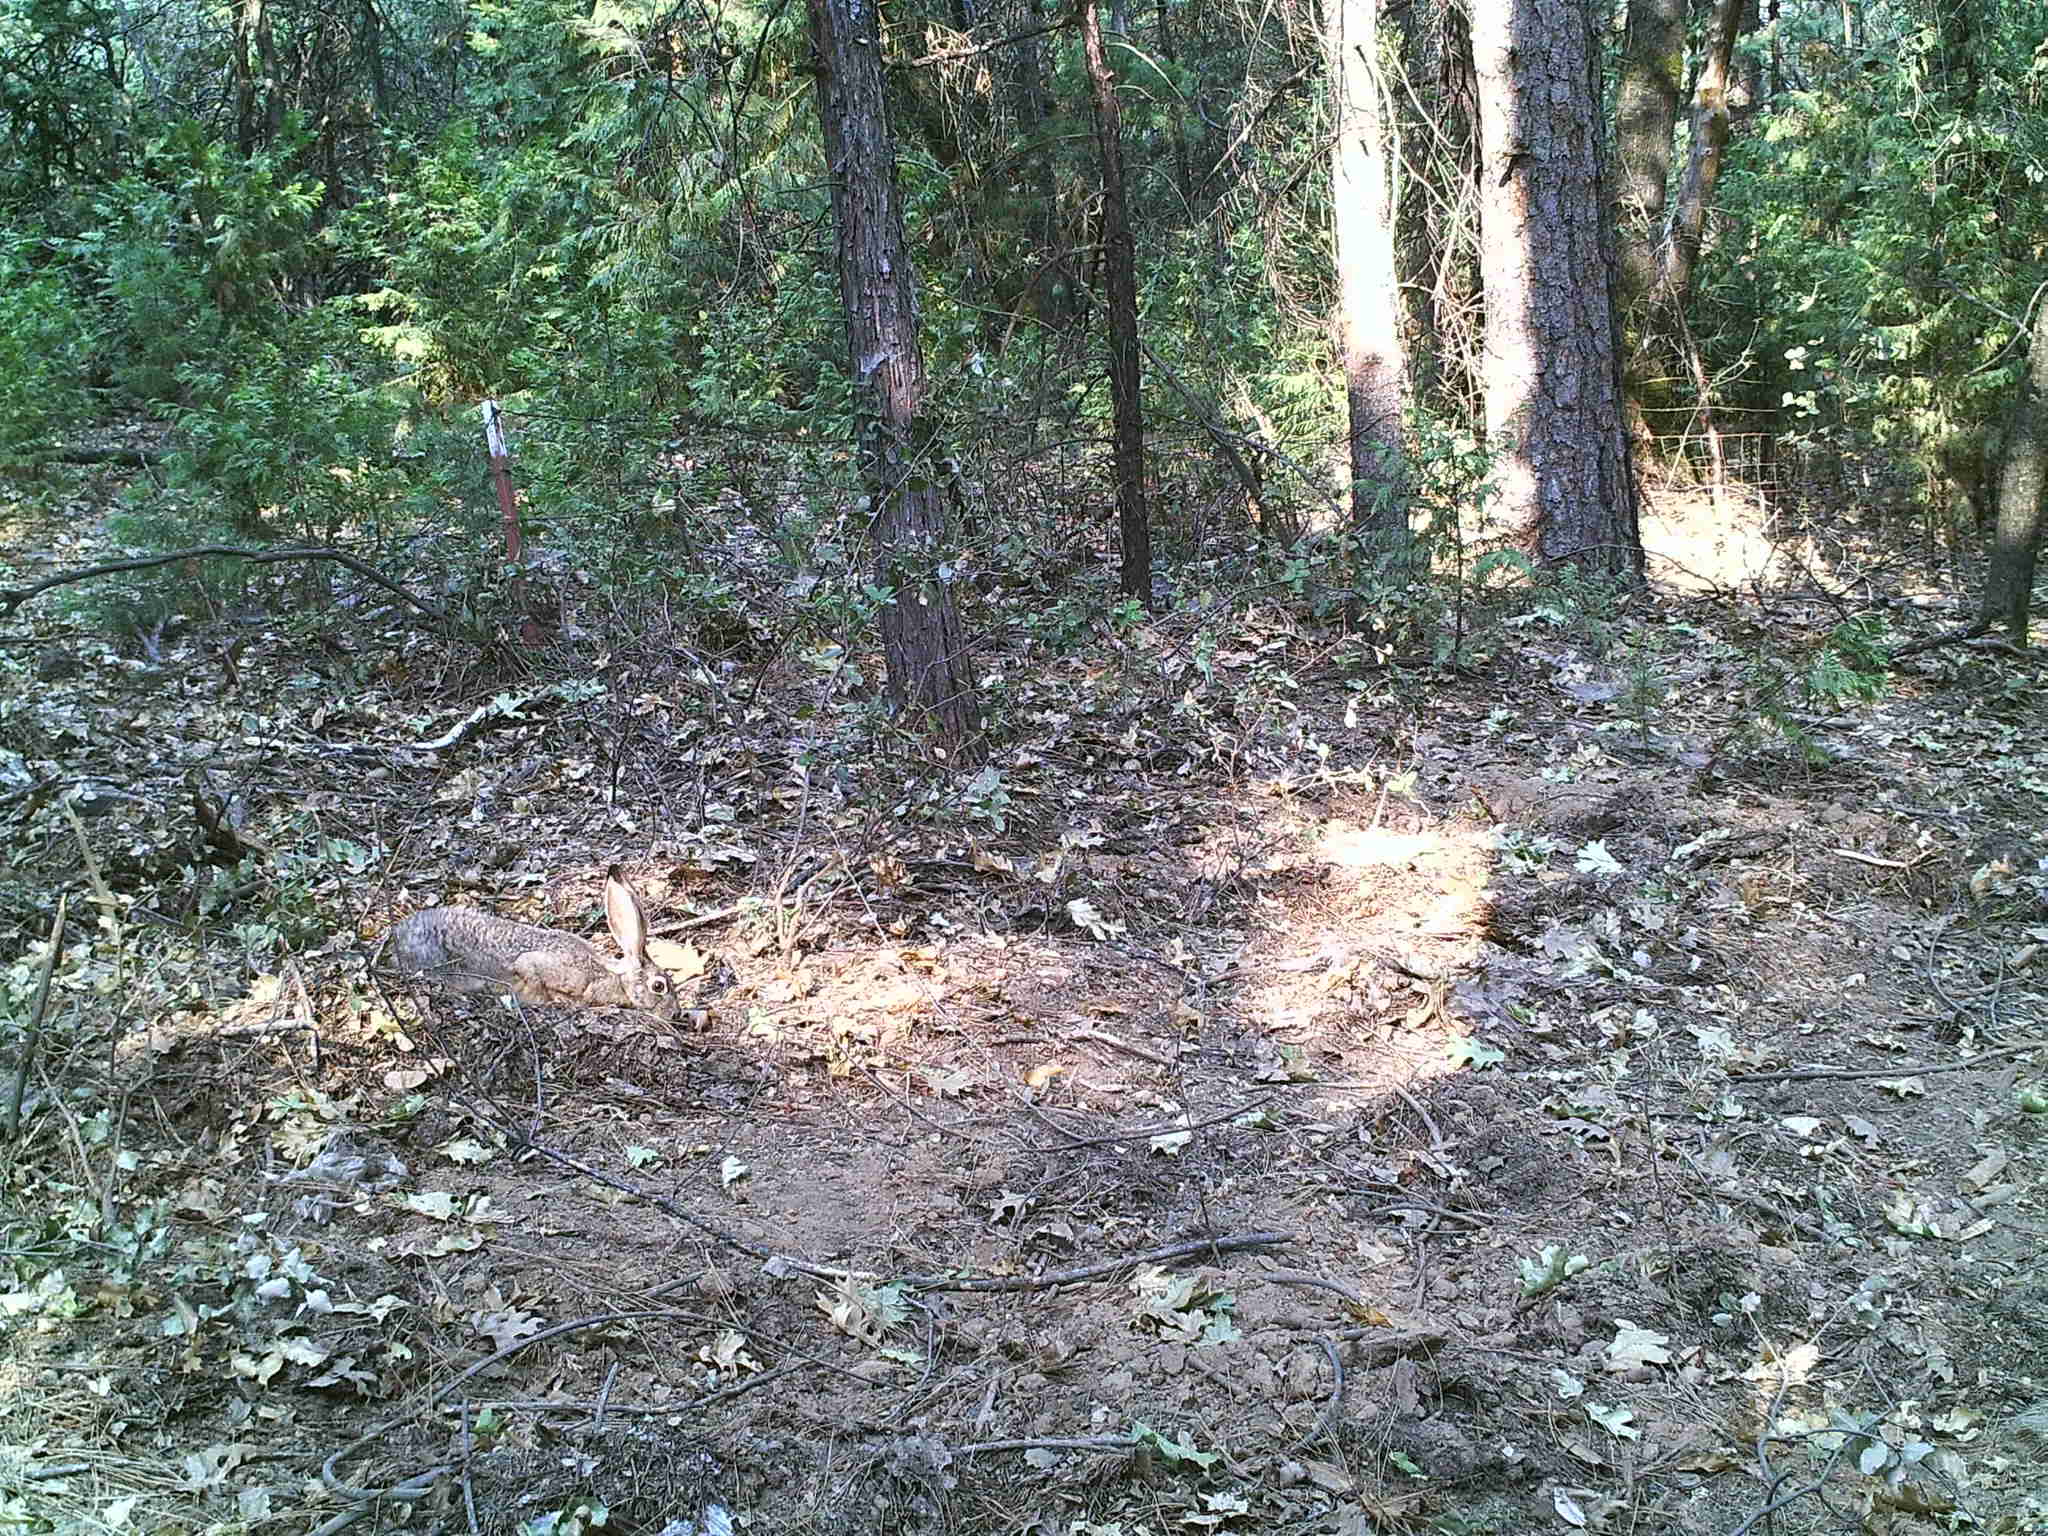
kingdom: Animalia
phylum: Chordata
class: Mammalia
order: Lagomorpha
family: Leporidae
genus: Lepus
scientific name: Lepus californicus
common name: Black-tailed jackrabbit
